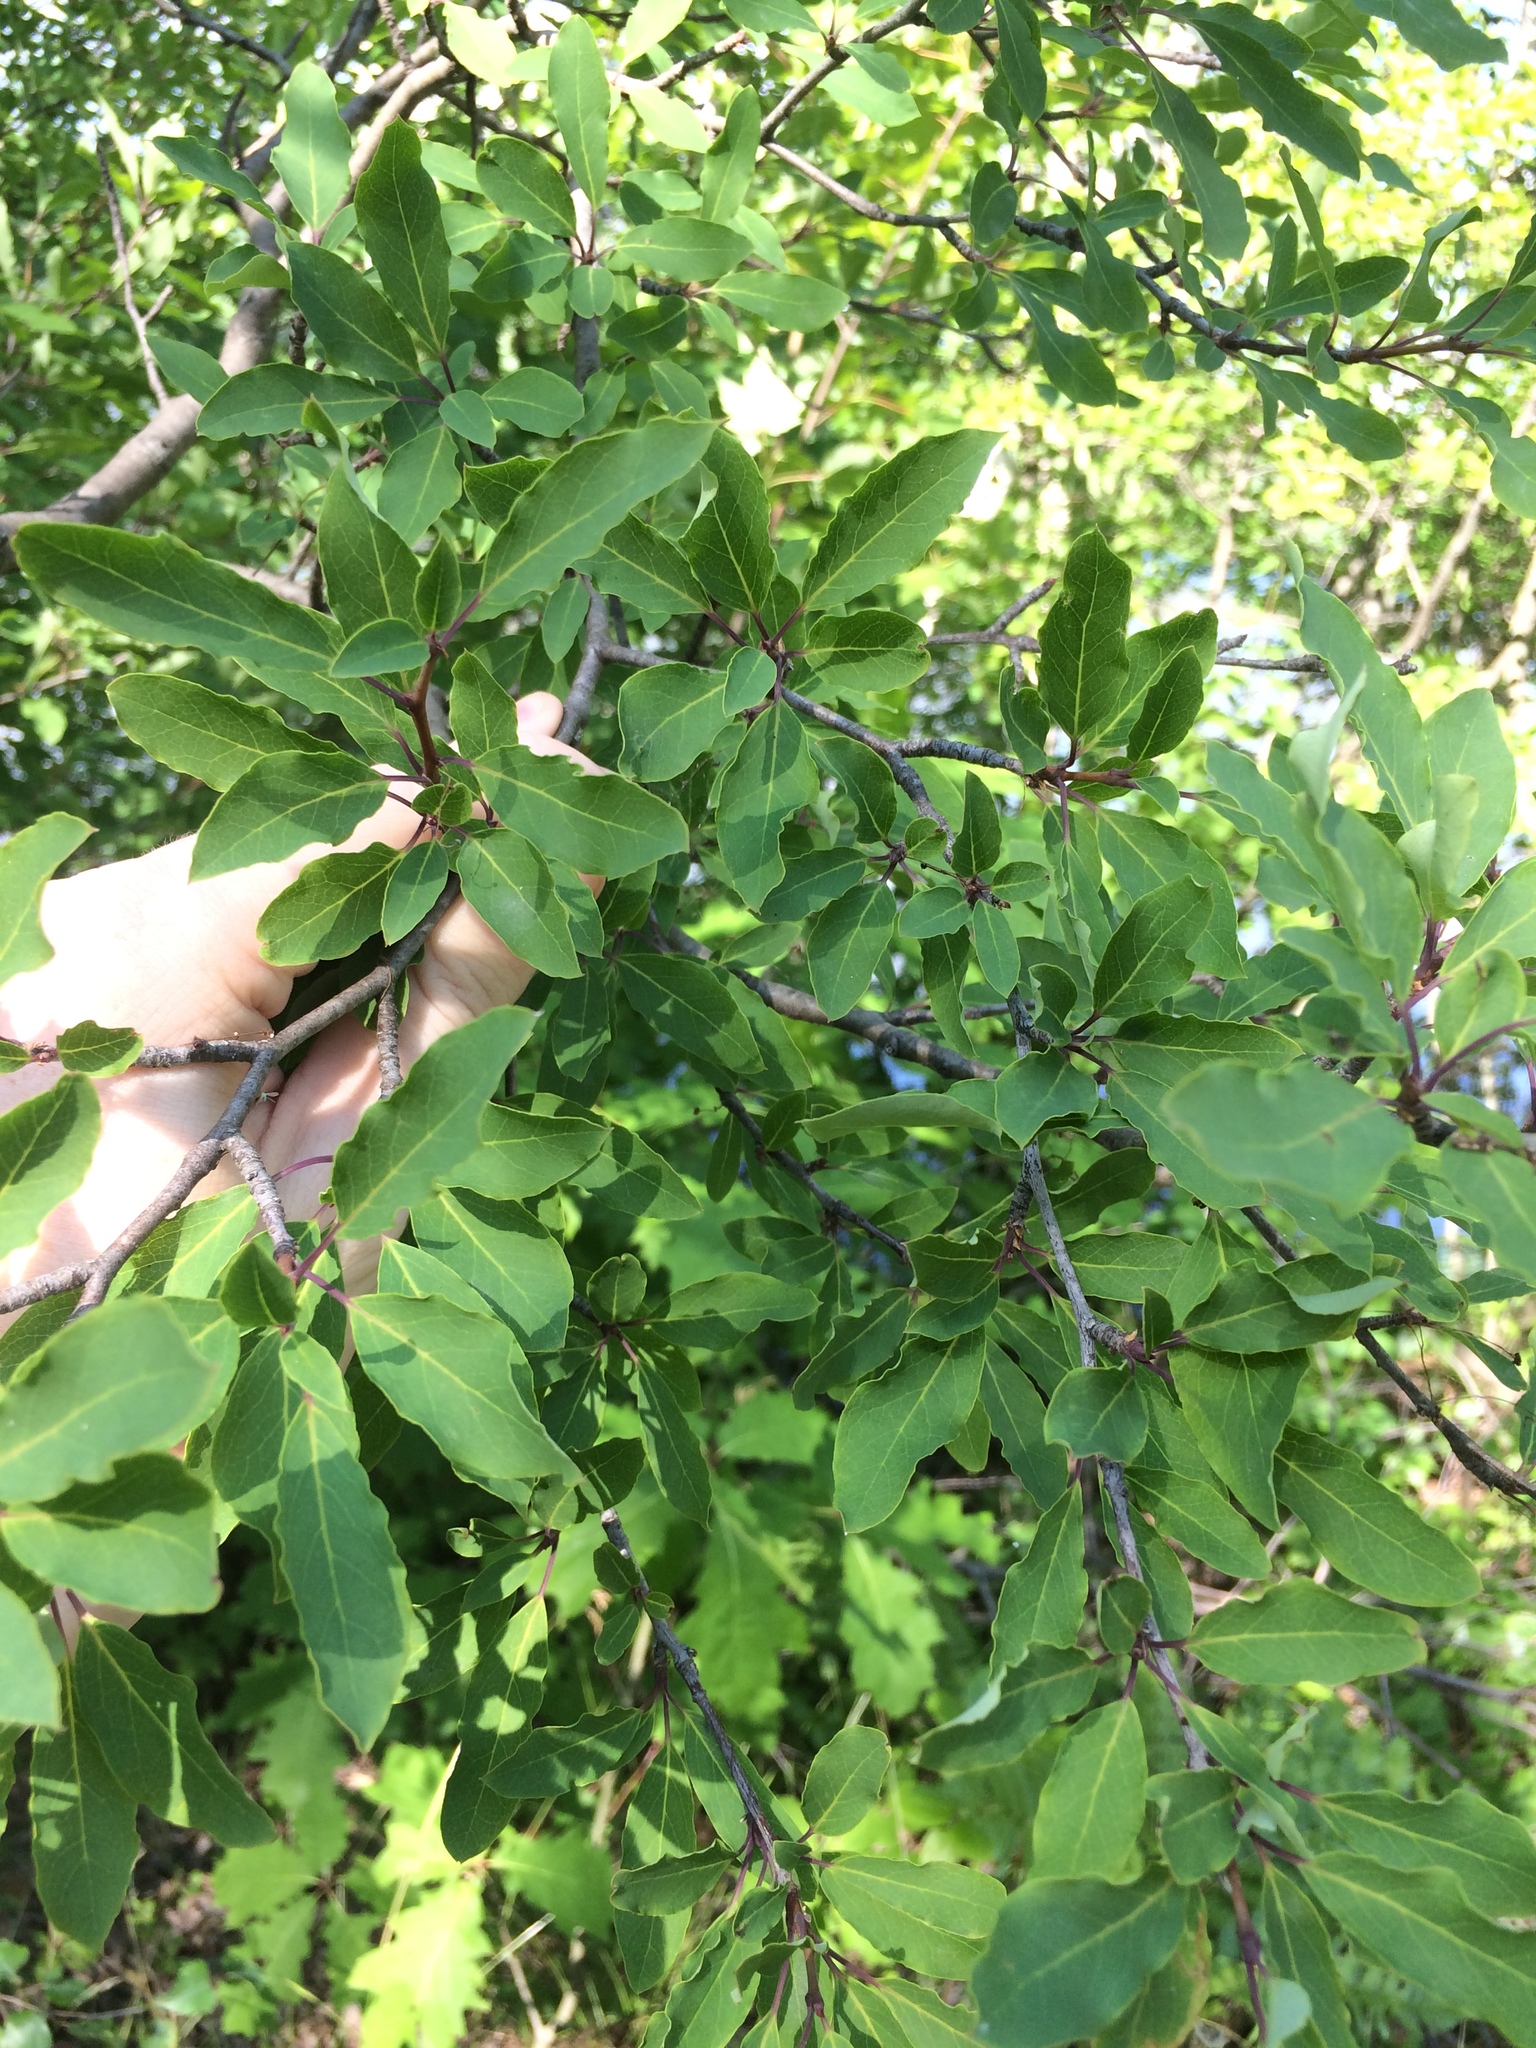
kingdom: Plantae
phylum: Tracheophyta
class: Magnoliopsida
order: Aquifoliales
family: Aquifoliaceae
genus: Ilex
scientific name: Ilex mucronata
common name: Catberry
